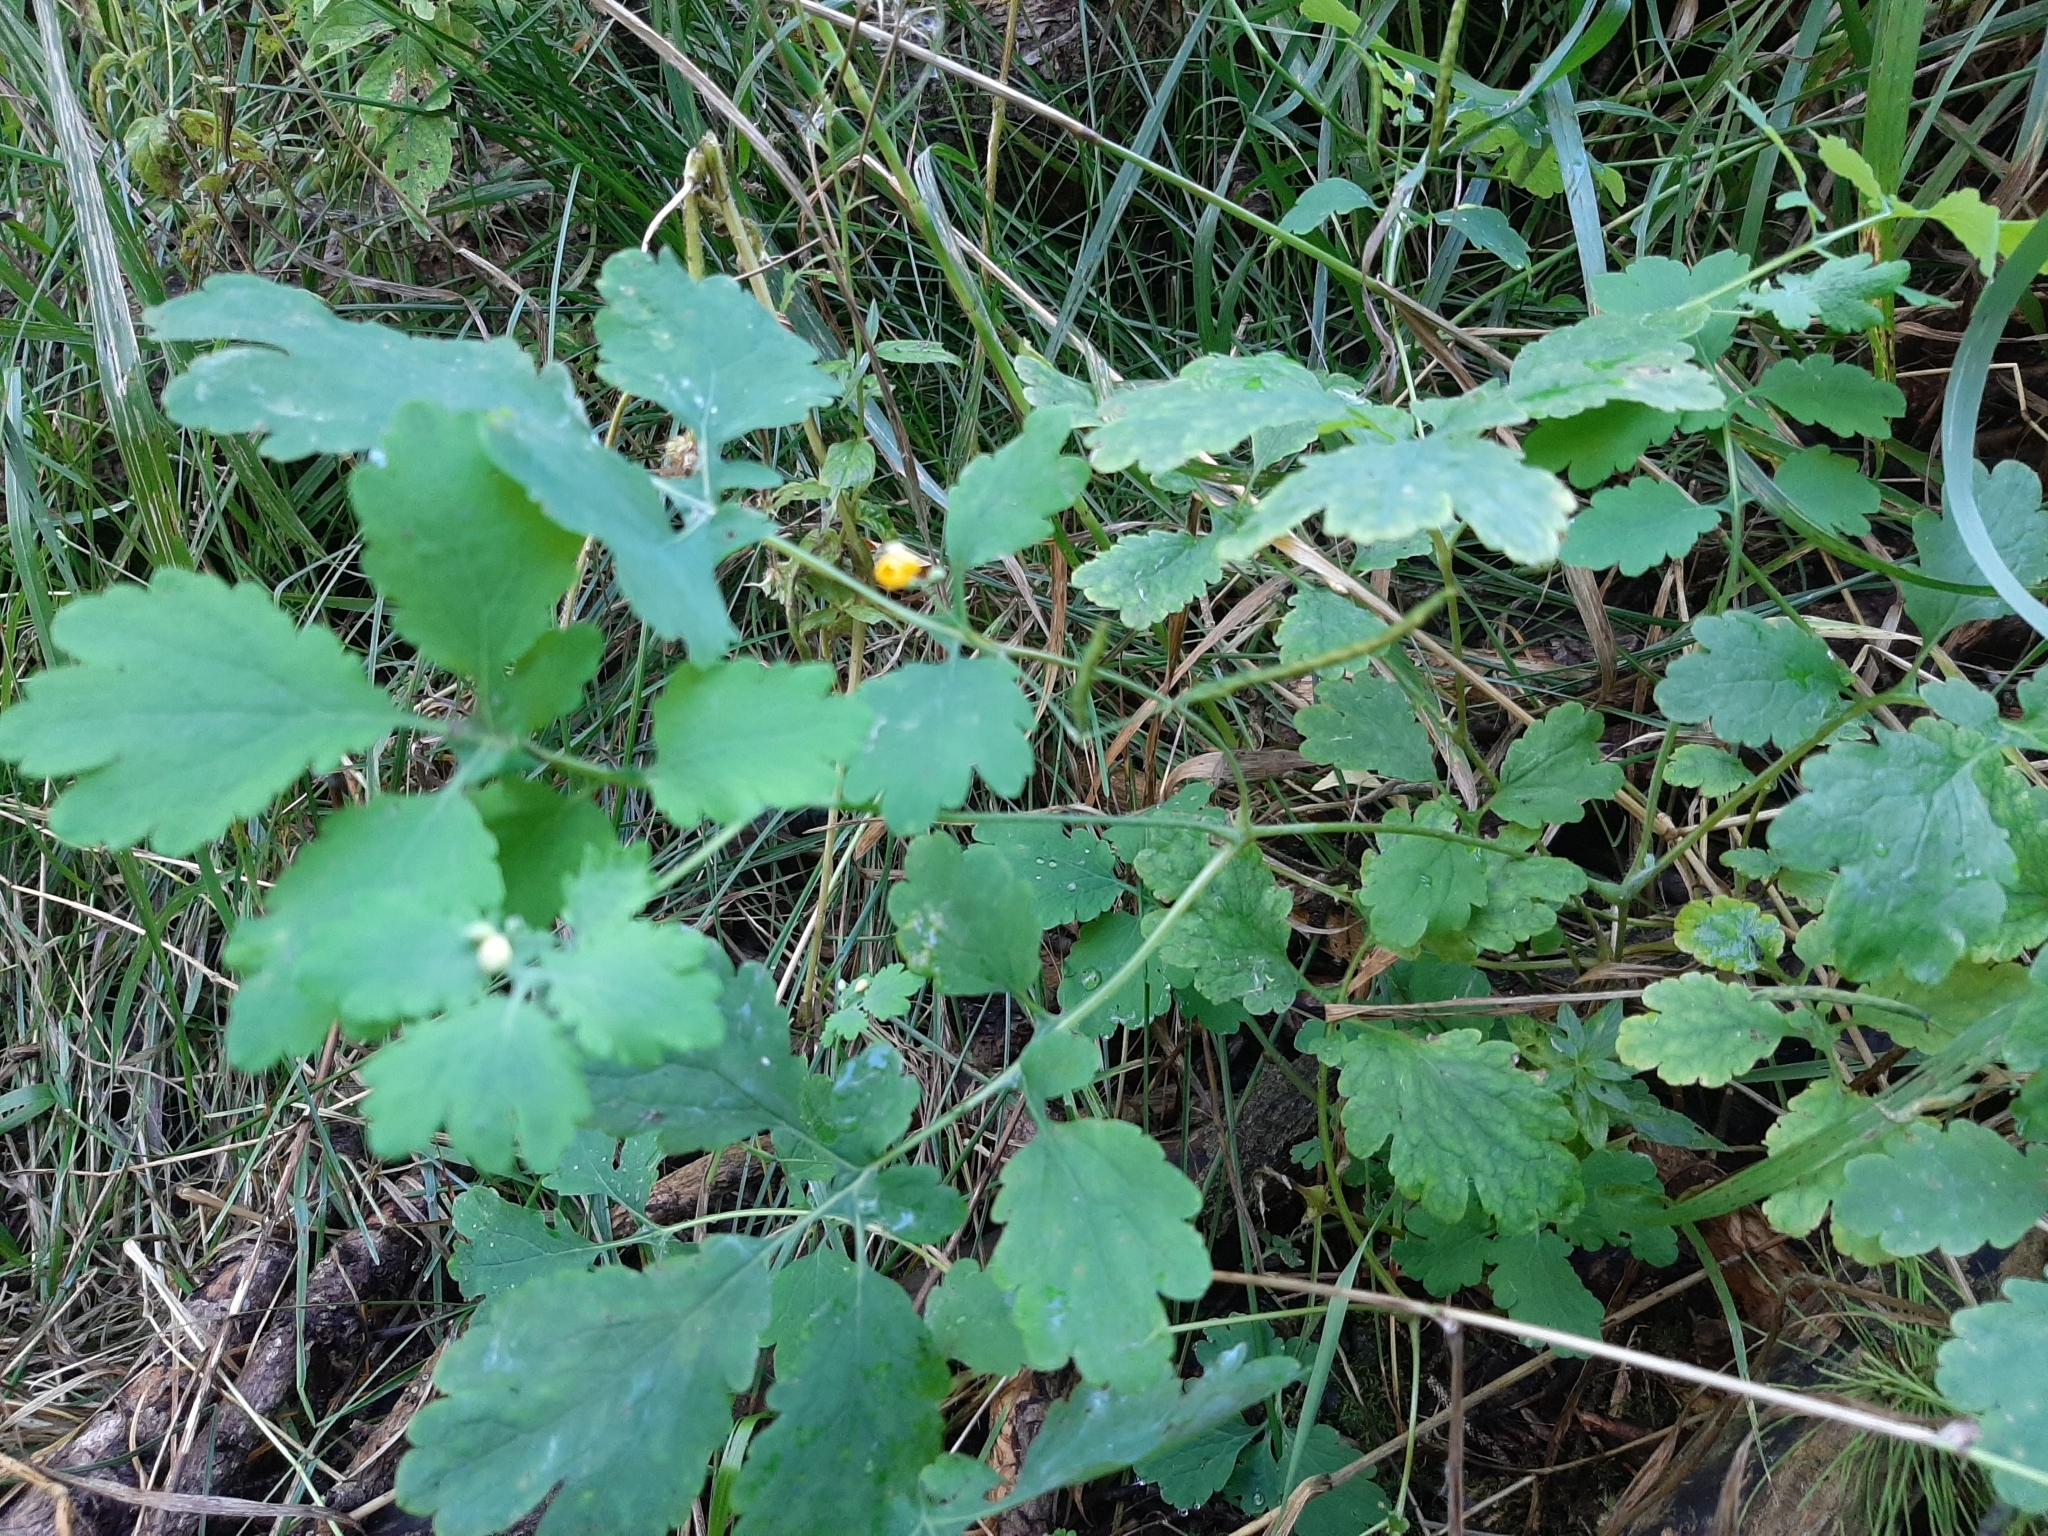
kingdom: Plantae
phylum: Tracheophyta
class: Magnoliopsida
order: Ranunculales
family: Papaveraceae
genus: Chelidonium
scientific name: Chelidonium majus
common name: Greater celandine
